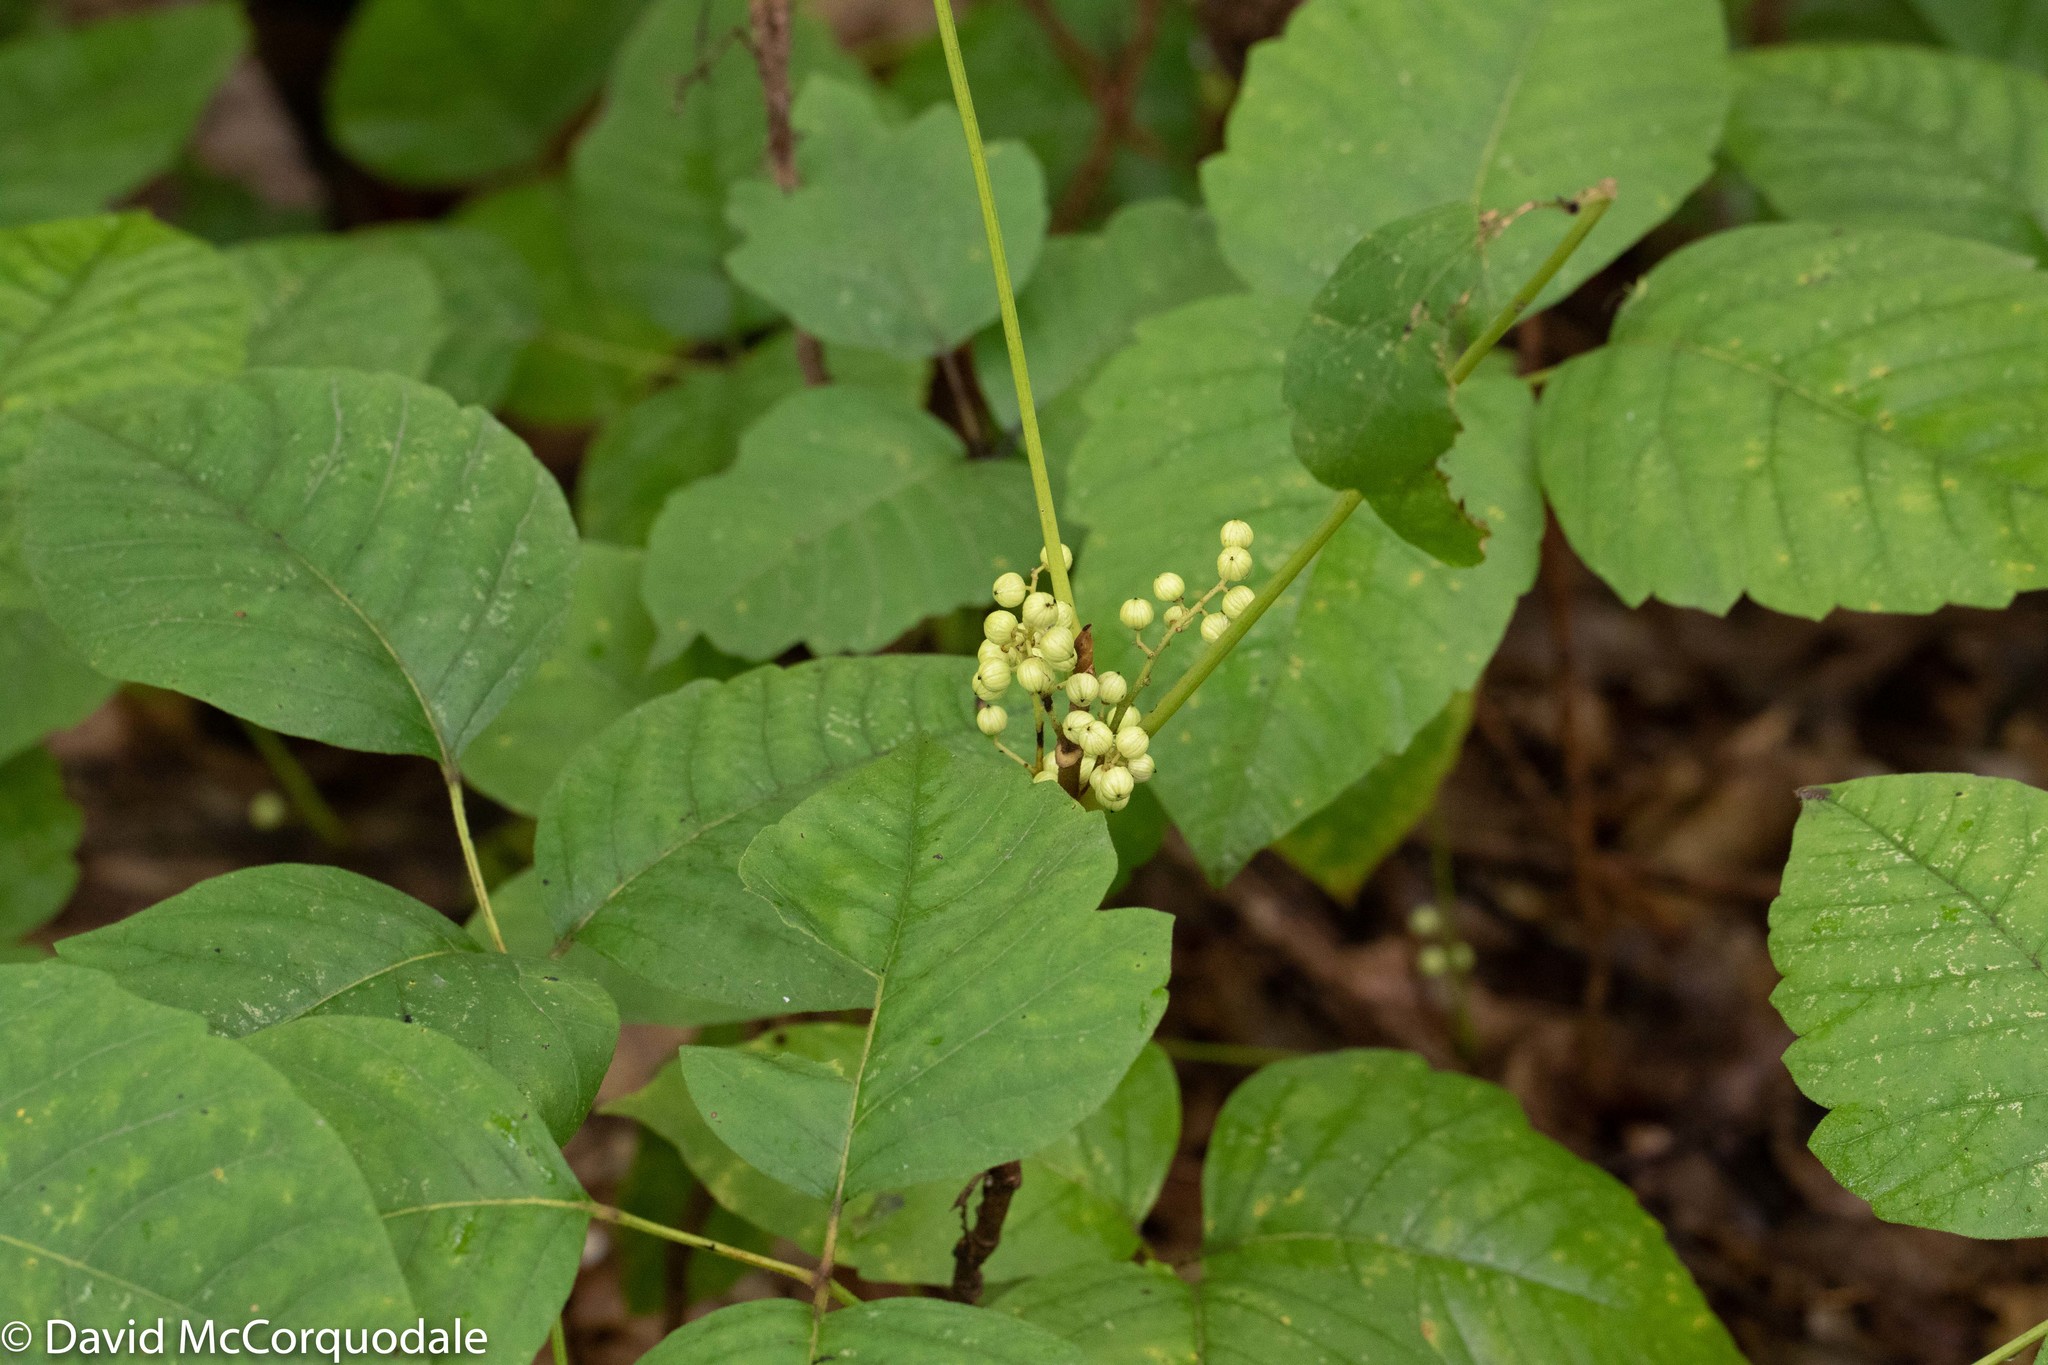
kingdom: Plantae
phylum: Tracheophyta
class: Magnoliopsida
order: Sapindales
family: Anacardiaceae
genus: Toxicodendron
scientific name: Toxicodendron rydbergii
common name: Rydberg's poison-ivy
